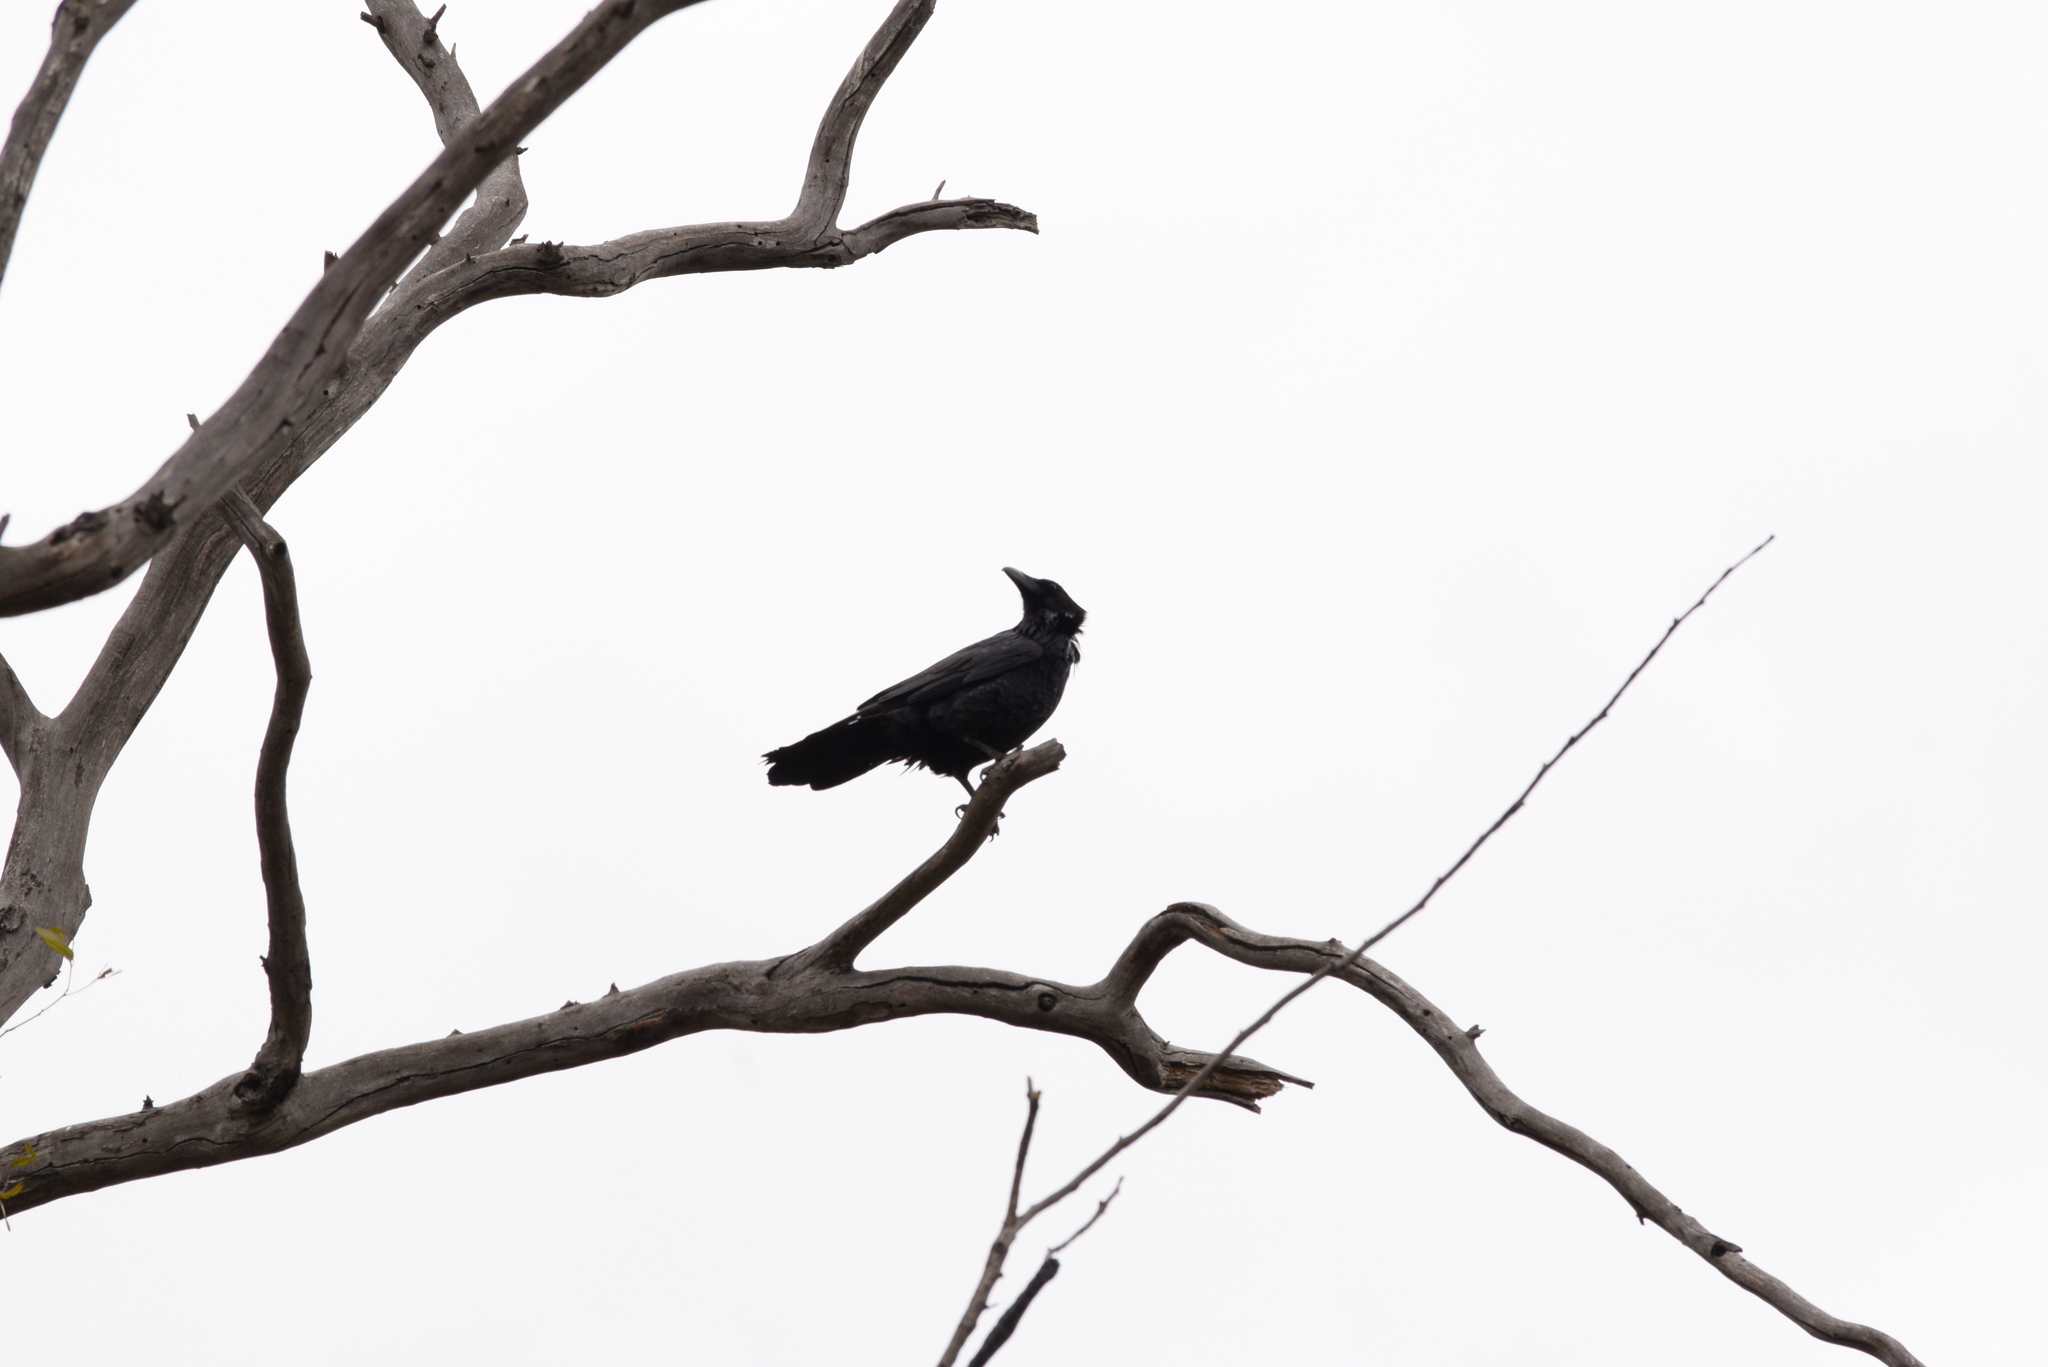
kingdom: Animalia
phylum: Chordata
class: Aves
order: Passeriformes
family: Corvidae
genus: Corvus
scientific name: Corvus corax
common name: Common raven
